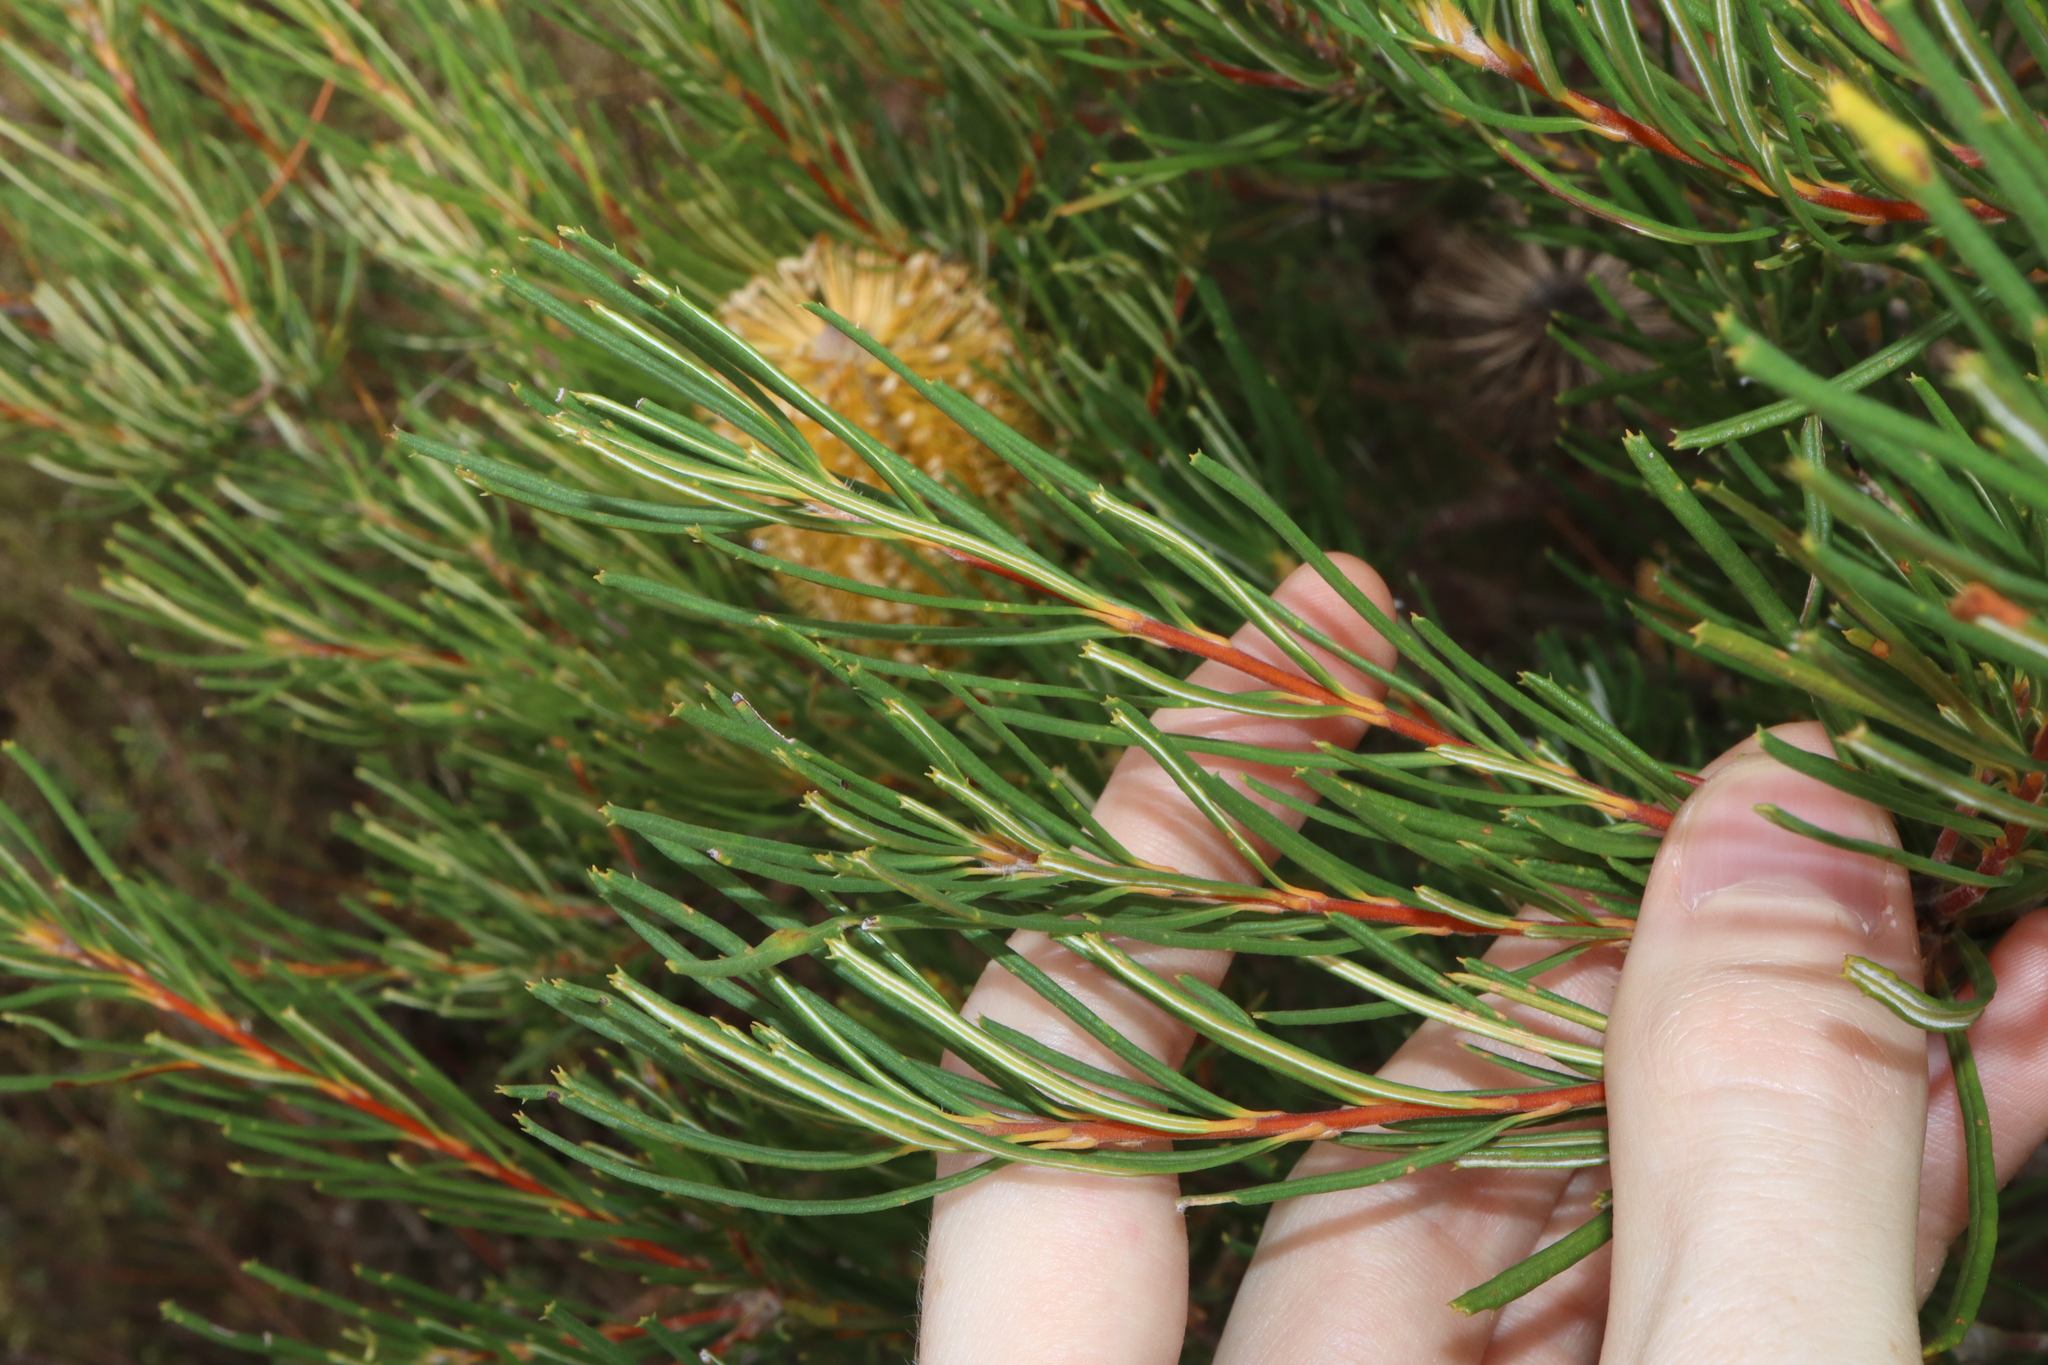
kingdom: Plantae
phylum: Tracheophyta
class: Magnoliopsida
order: Proteales
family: Proteaceae
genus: Banksia
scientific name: Banksia spinulosa
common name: Hairpin banksia
